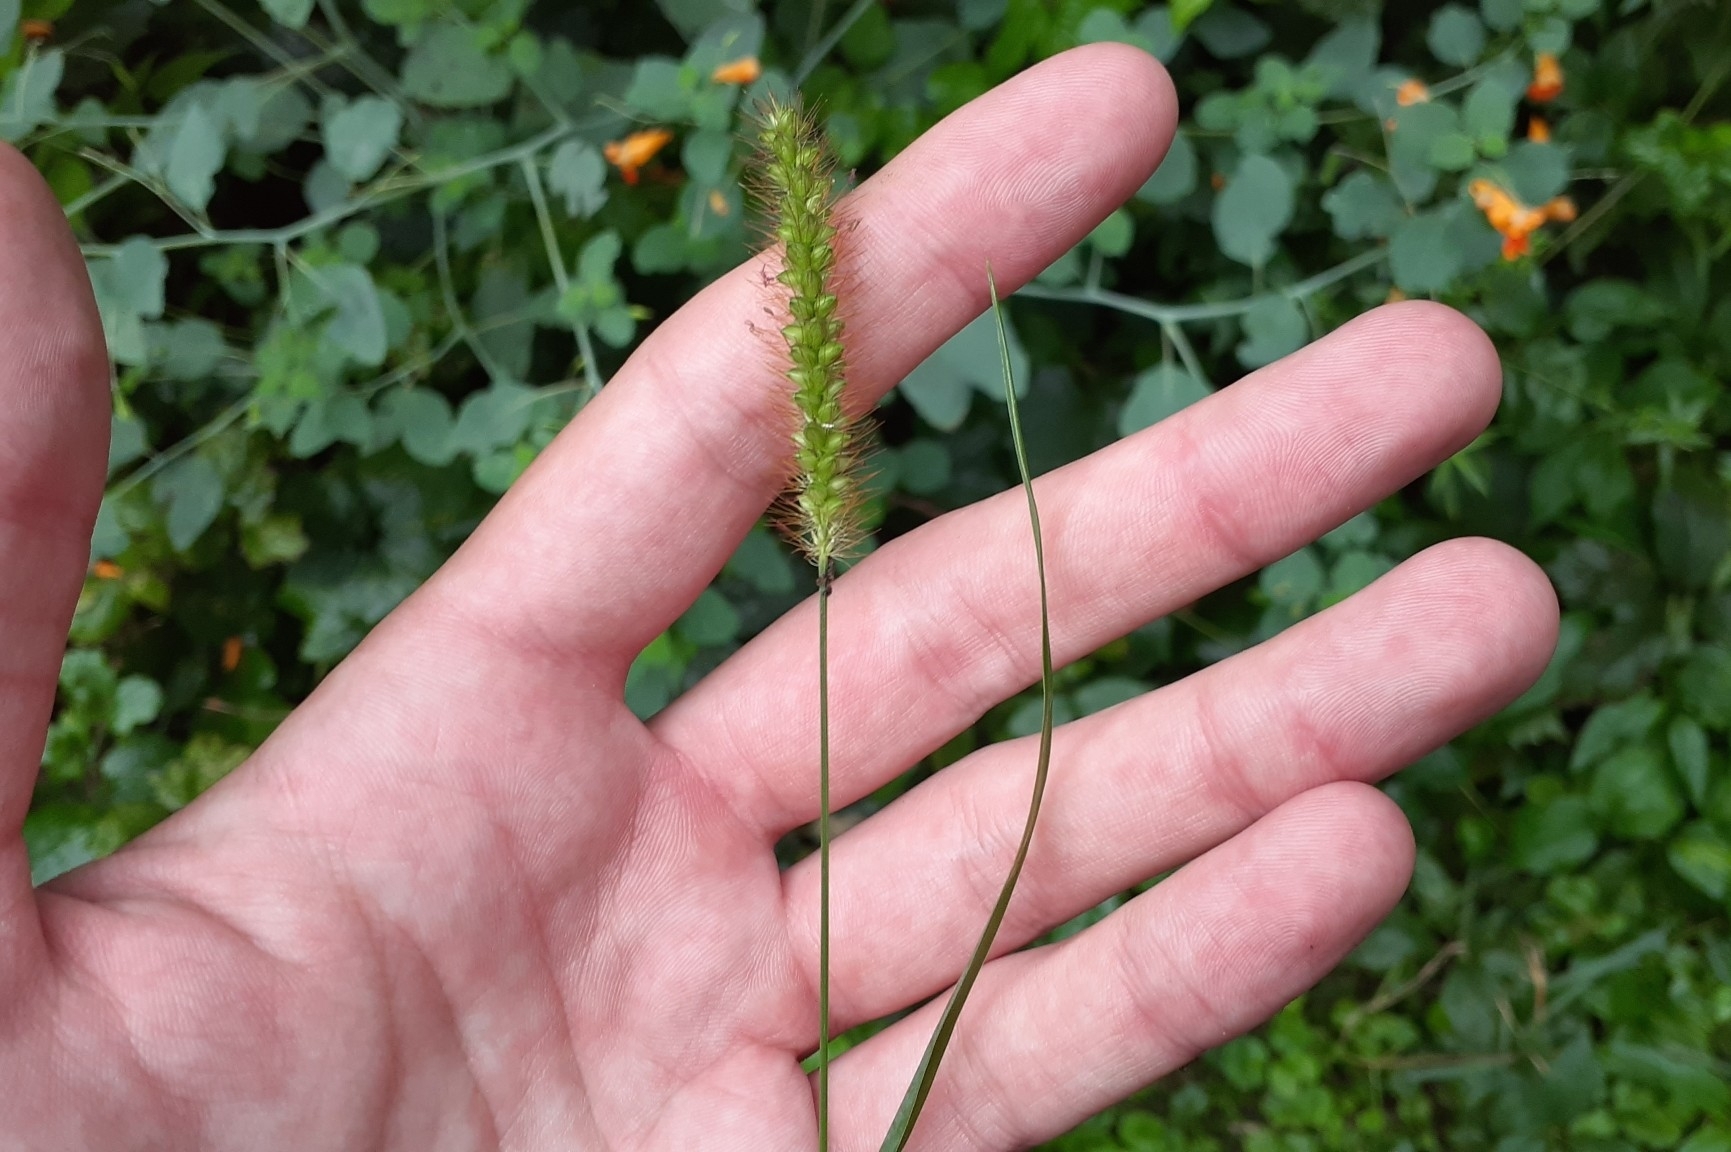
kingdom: Plantae
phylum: Tracheophyta
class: Liliopsida
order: Poales
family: Poaceae
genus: Setaria
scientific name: Setaria pumila
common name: Yellow bristle-grass
